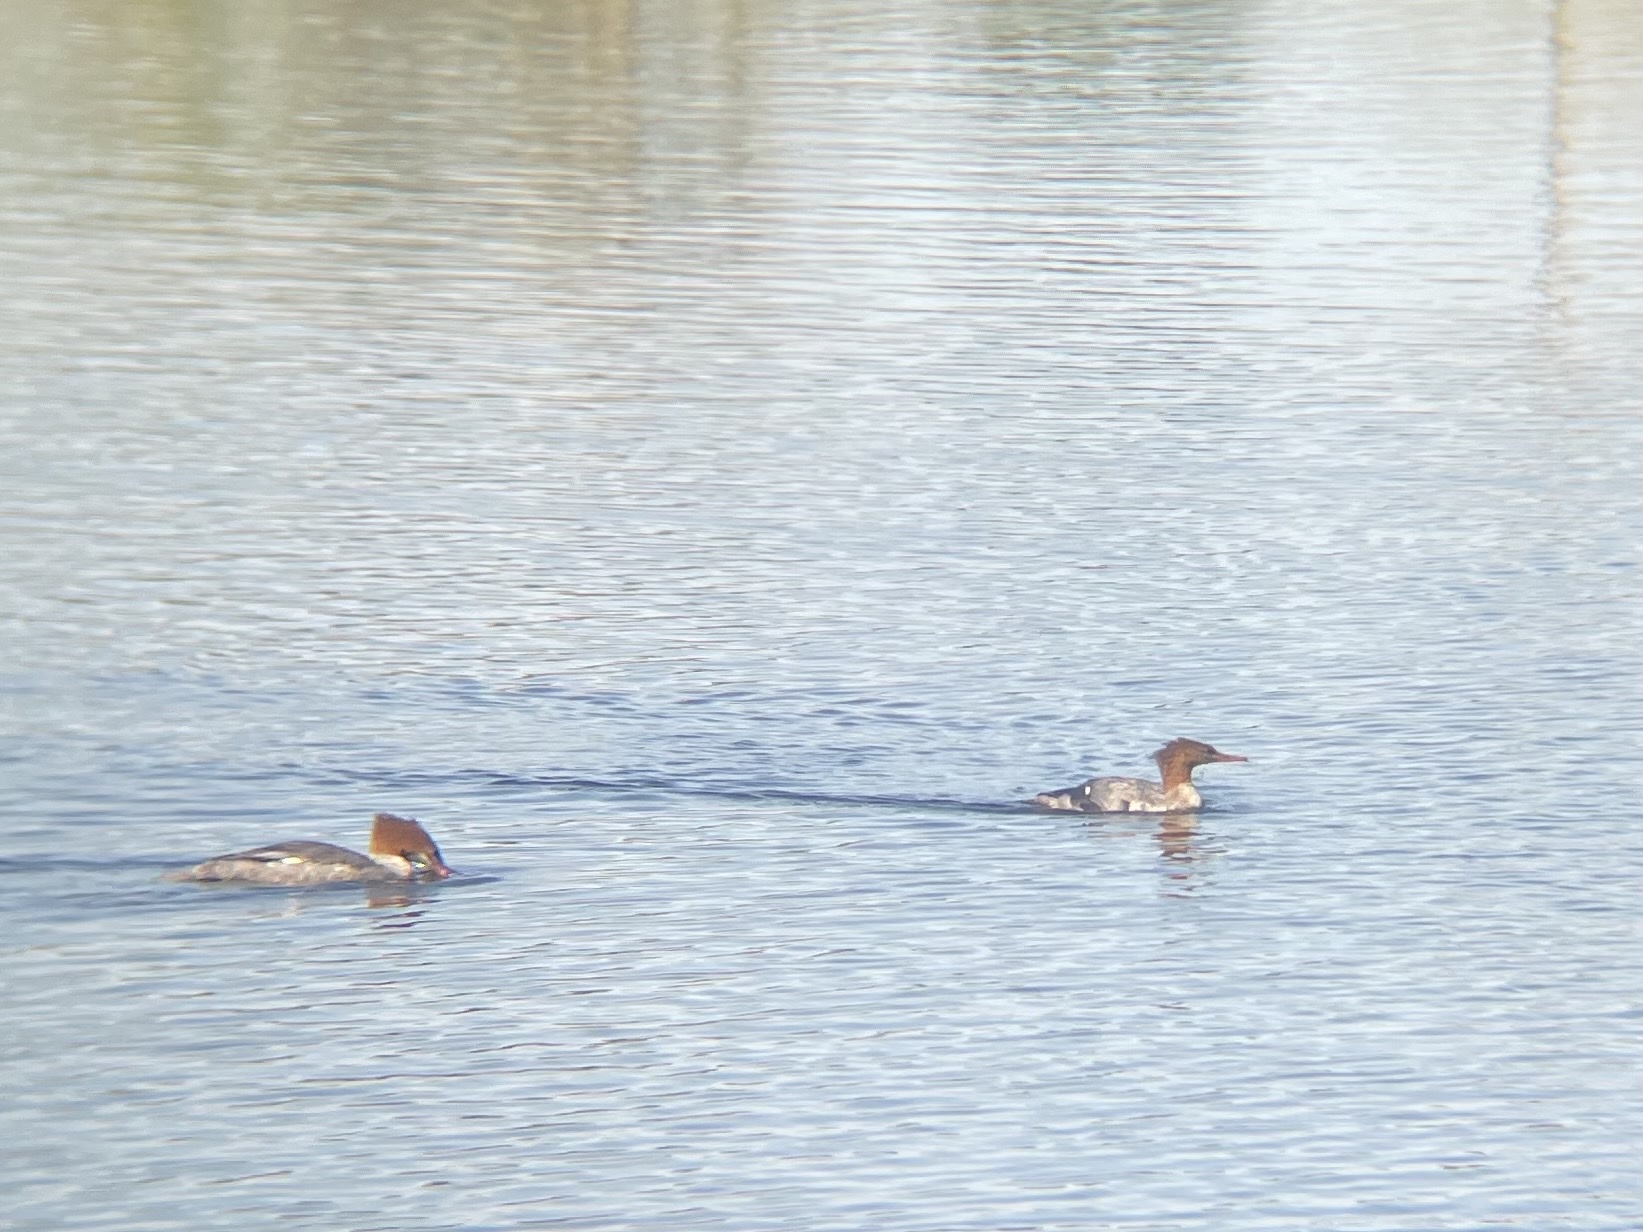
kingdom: Animalia
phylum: Chordata
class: Aves
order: Anseriformes
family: Anatidae
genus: Mergus
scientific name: Mergus merganser
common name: Common merganser
